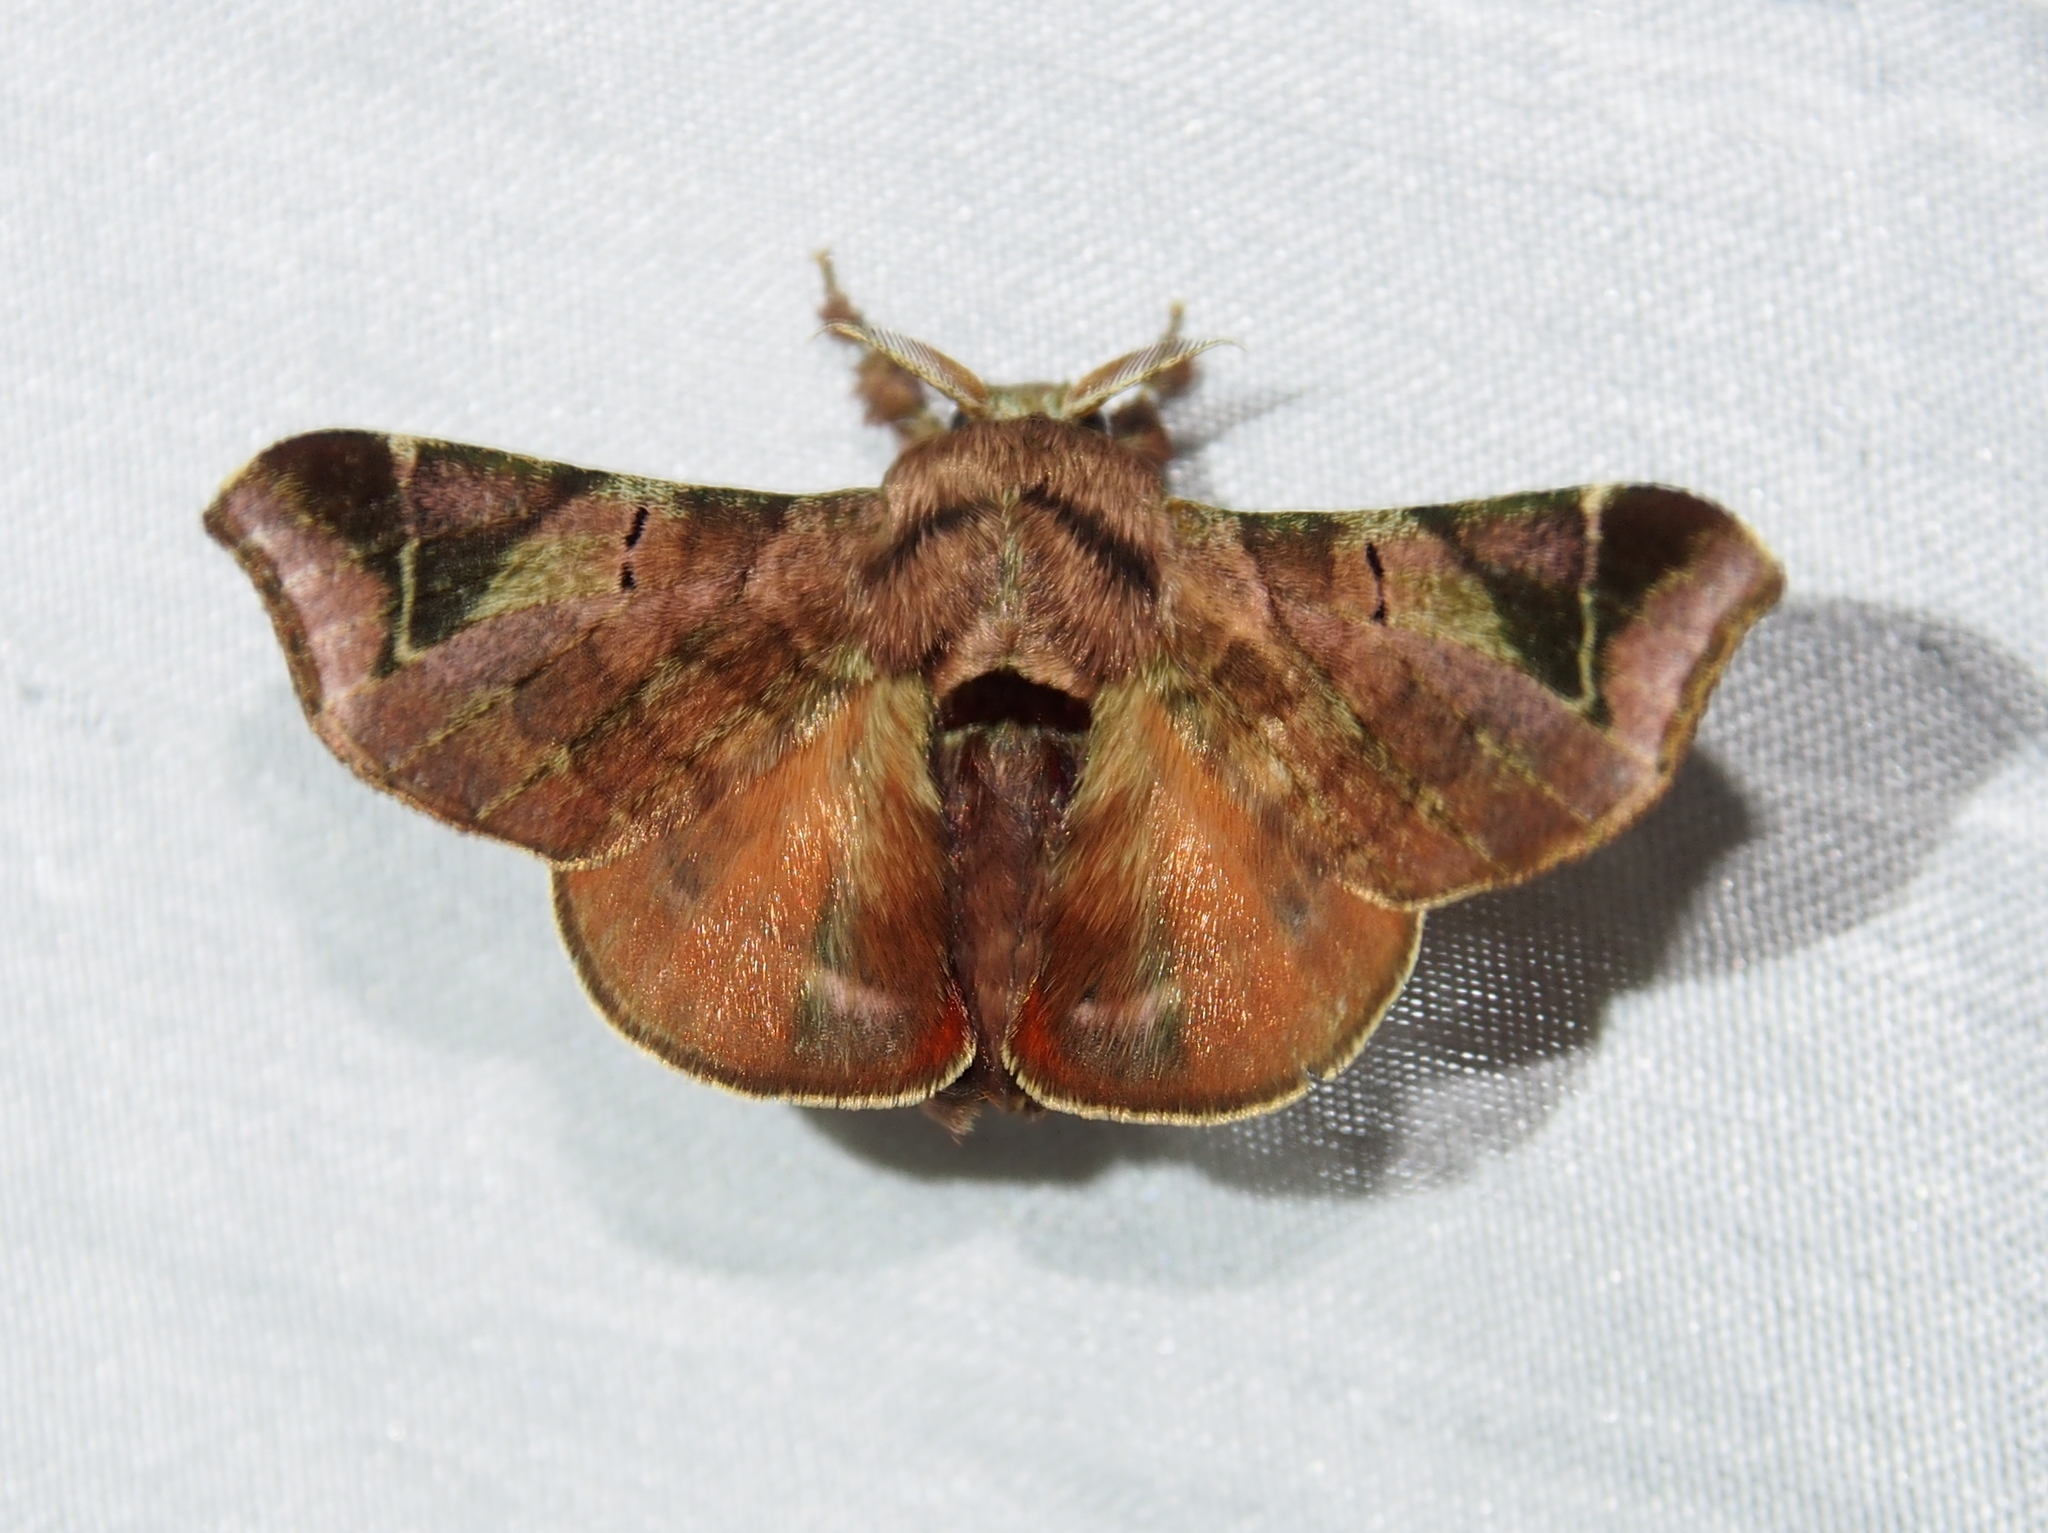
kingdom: Animalia
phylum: Arthropoda
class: Insecta
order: Lepidoptera
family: Bombycidae
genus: Quentalia
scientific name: Quentalia numalia
